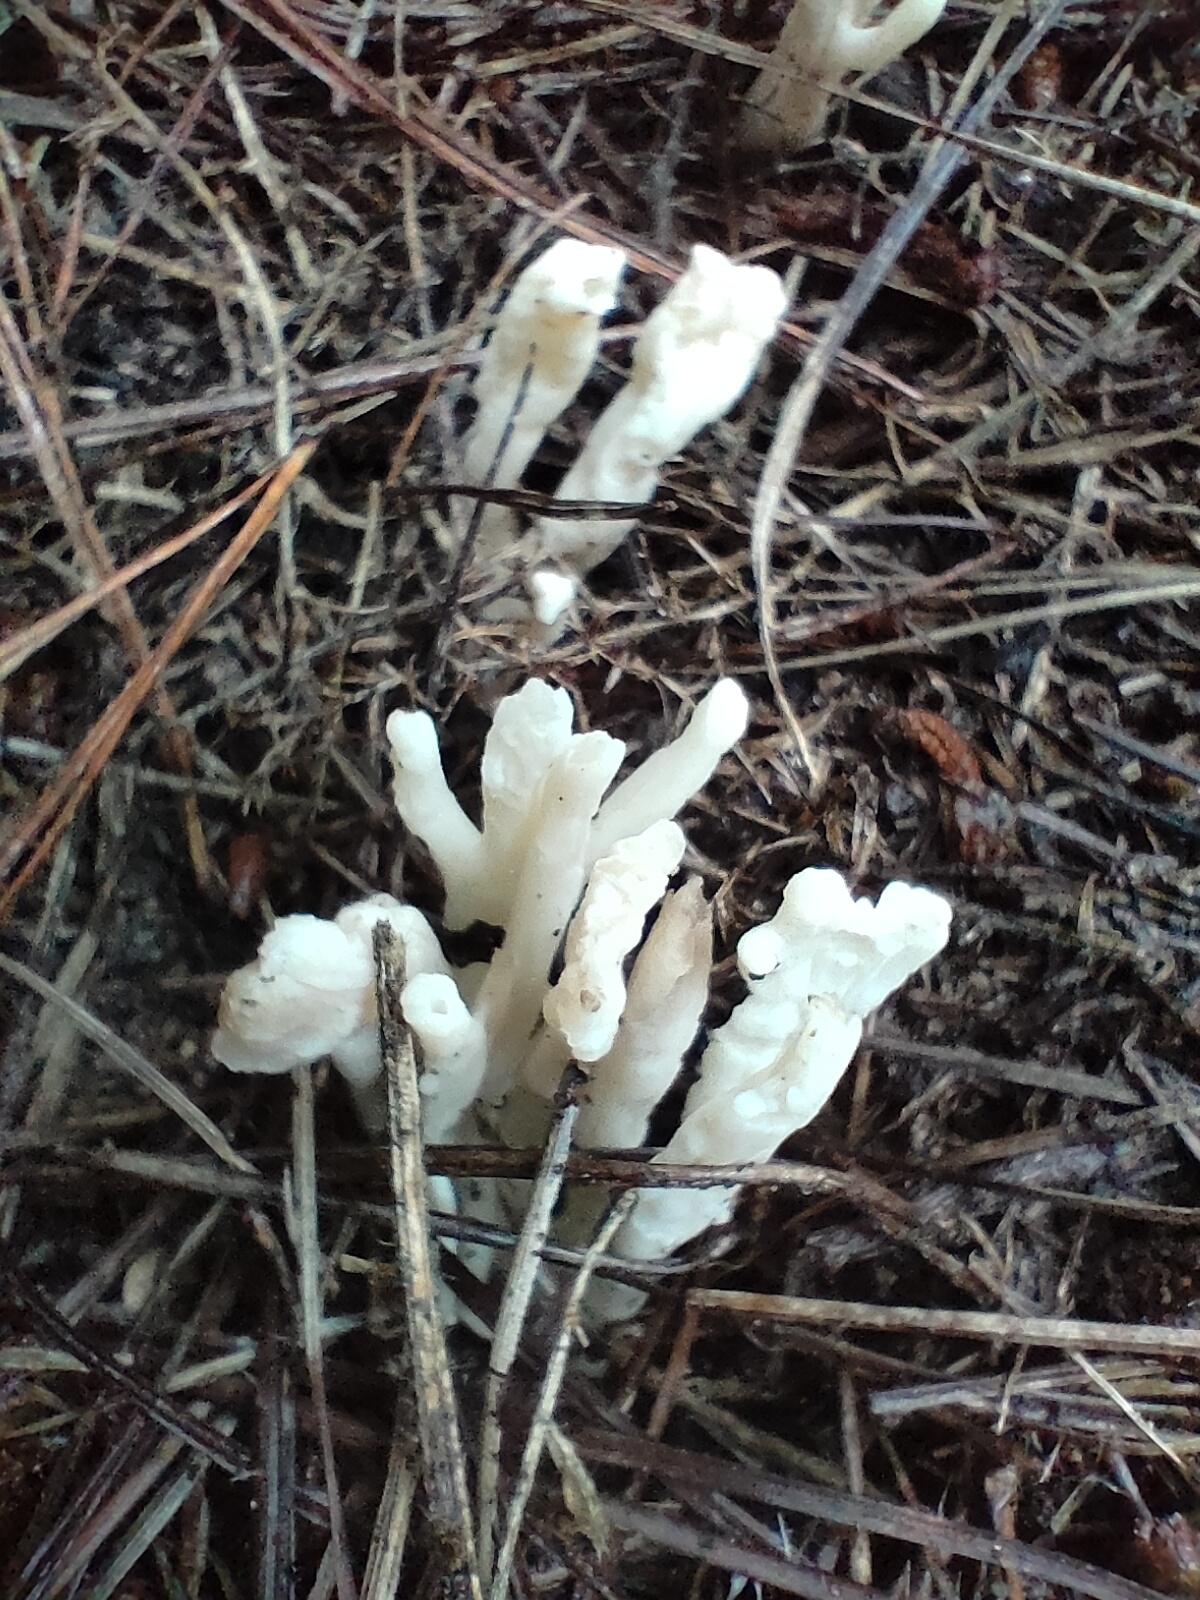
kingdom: Fungi
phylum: Basidiomycota
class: Agaricomycetes
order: Cantharellales
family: Hydnaceae
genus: Clavulina
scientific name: Clavulina rugosa
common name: Wrinkled club
